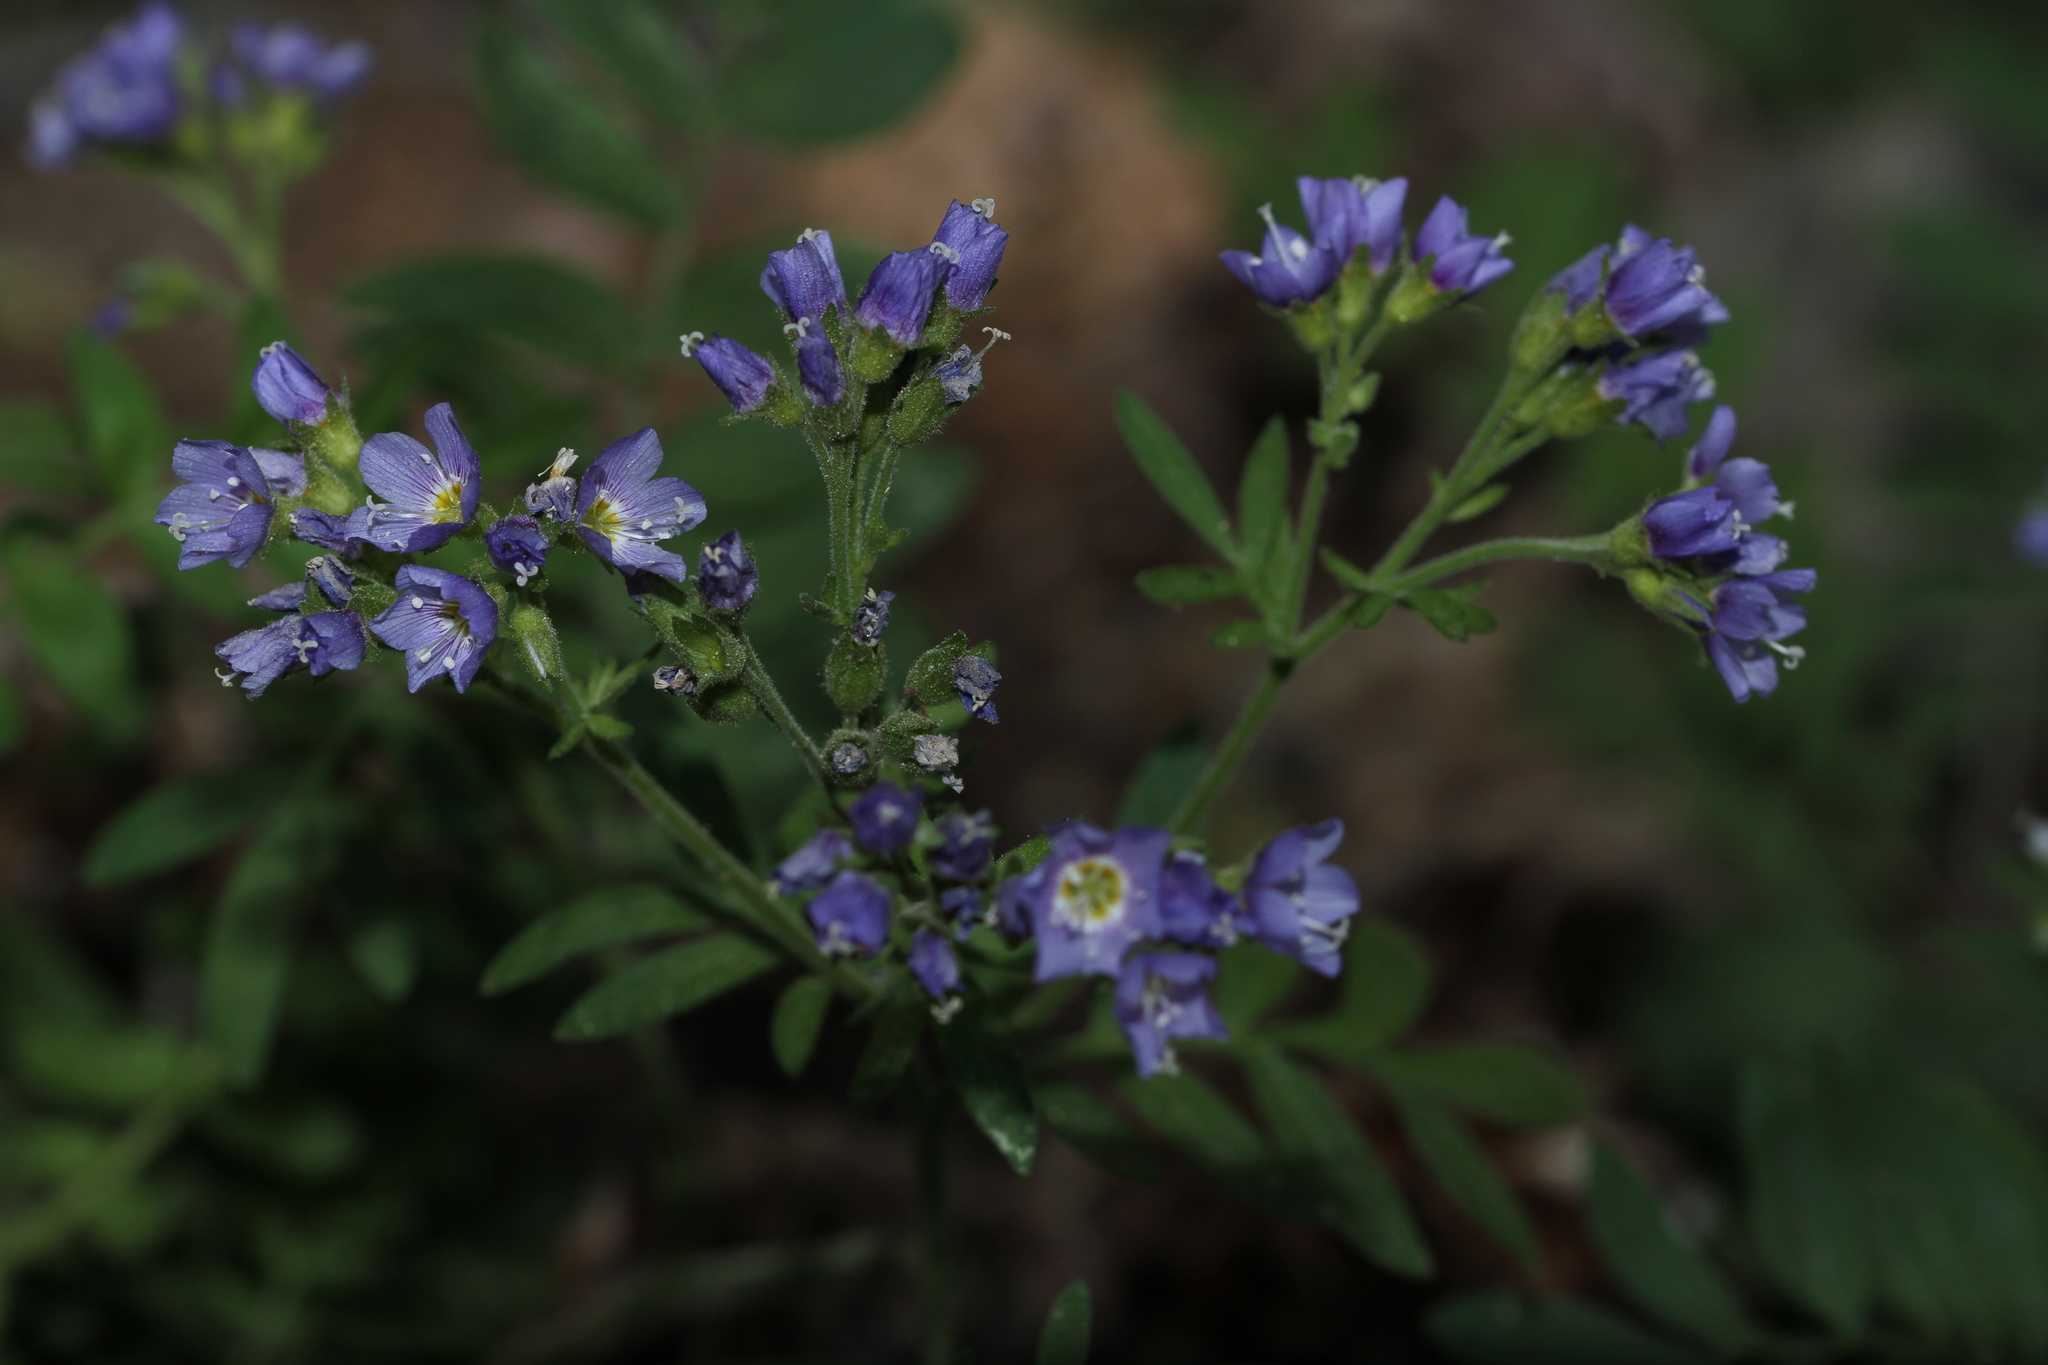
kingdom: Plantae
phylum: Tracheophyta
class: Magnoliopsida
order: Ericales
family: Polemoniaceae
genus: Polemonium
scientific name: Polemonium californicum
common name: California jacob's ladder
